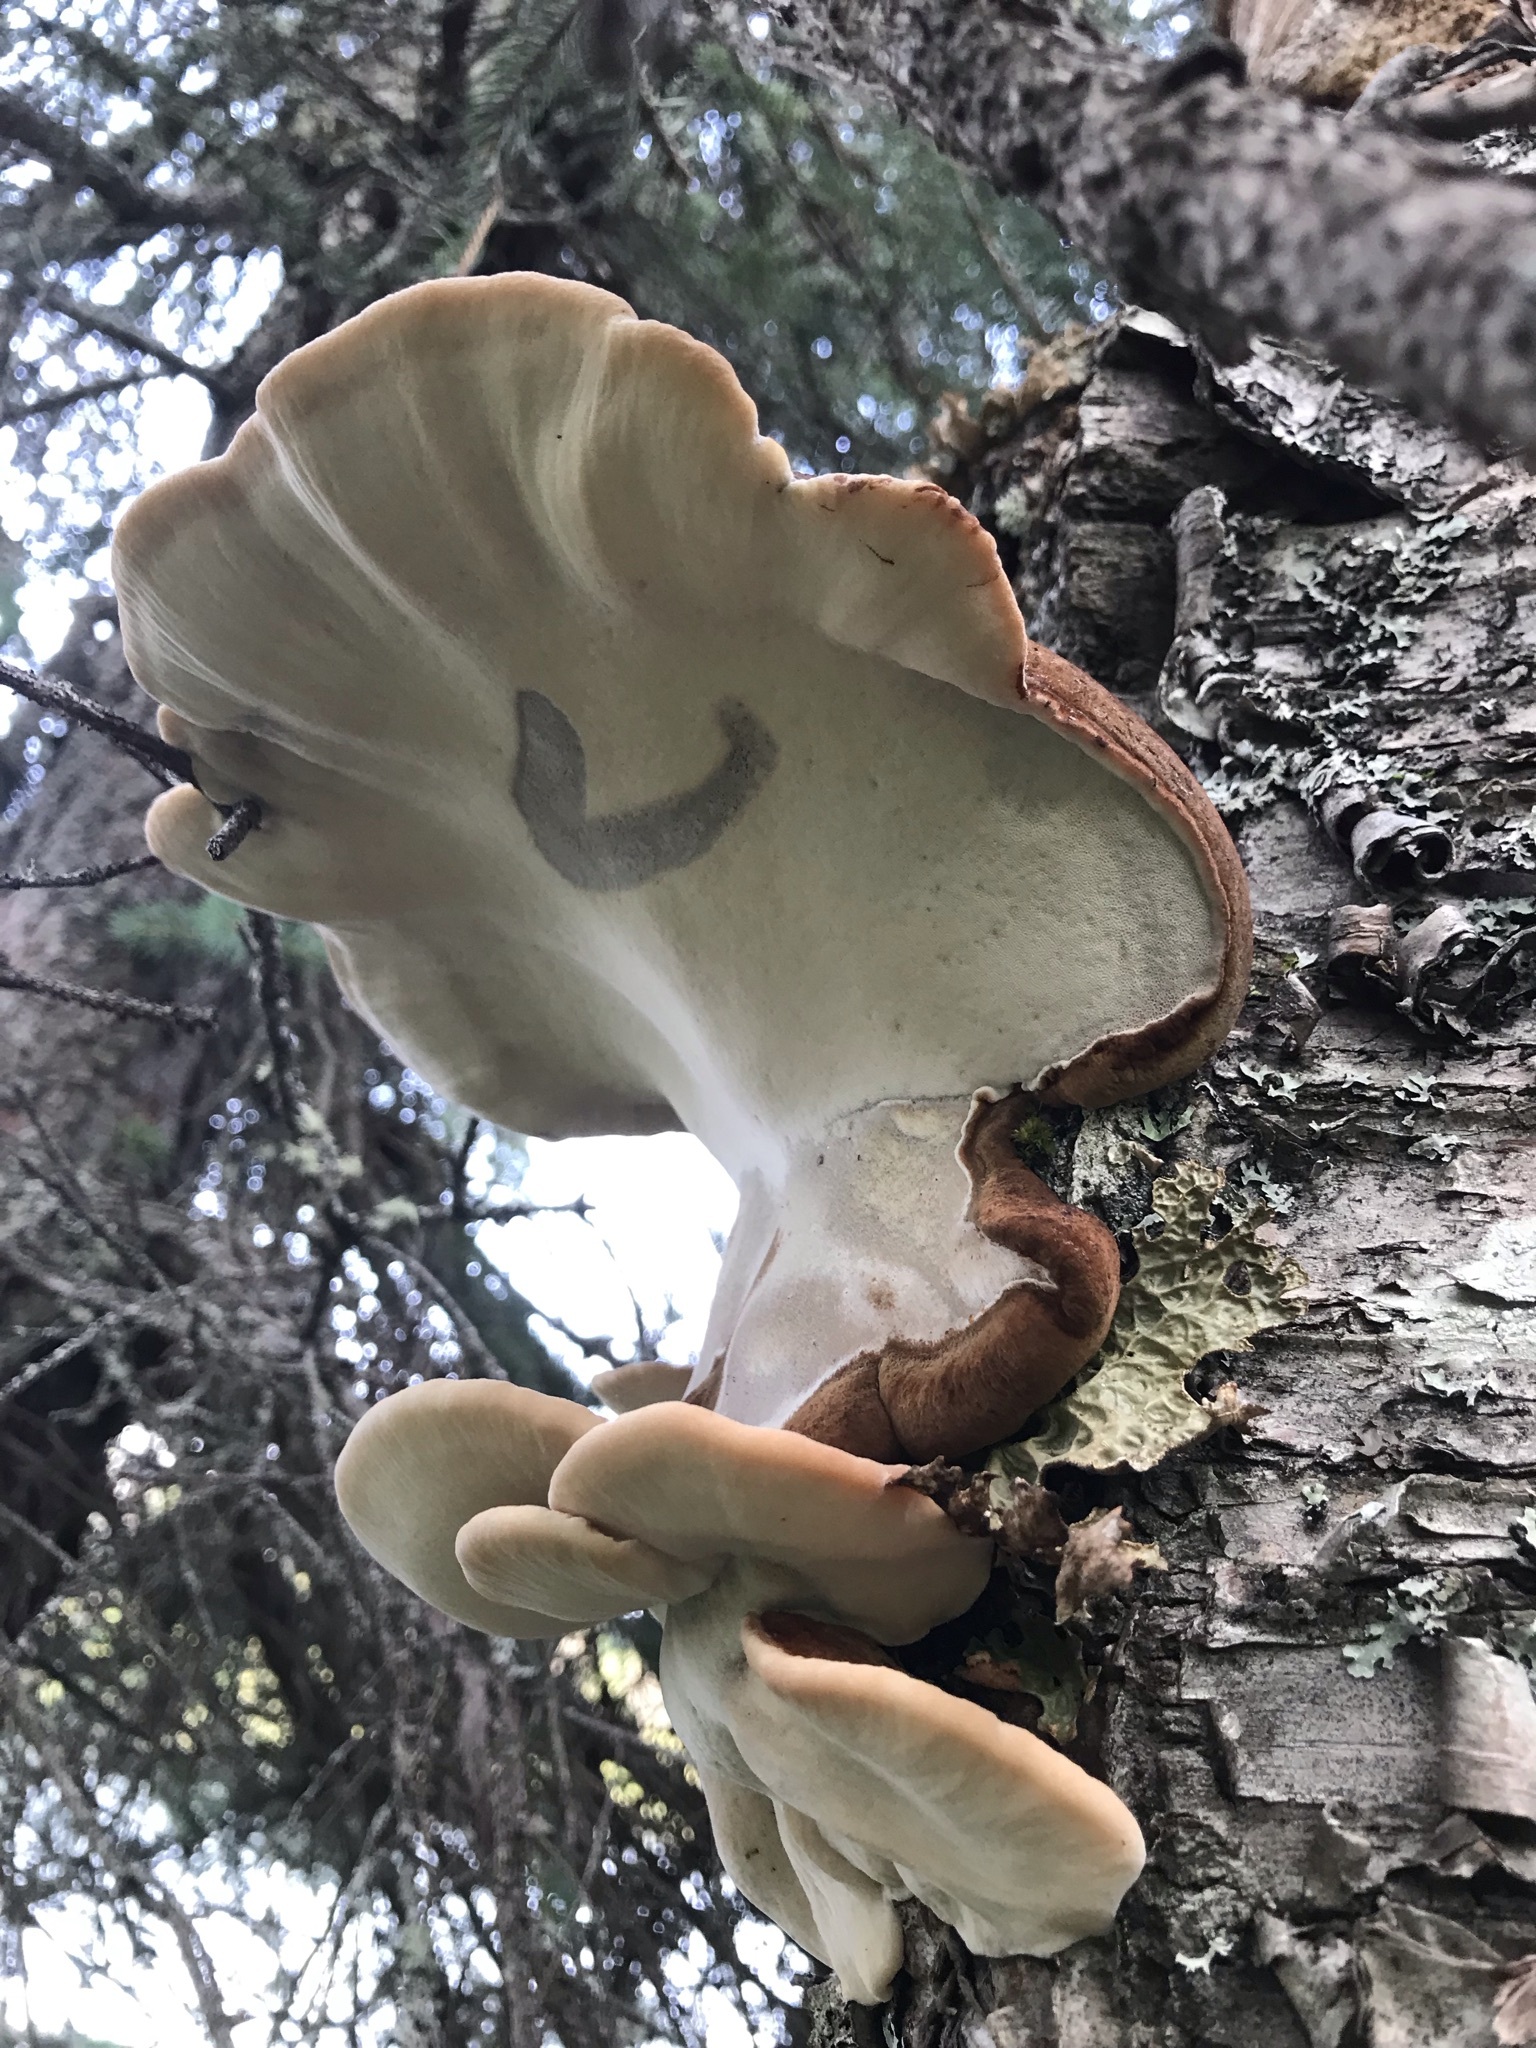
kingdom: Fungi
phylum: Basidiomycota
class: Agaricomycetes
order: Polyporales
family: Ischnodermataceae
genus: Ischnoderma
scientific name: Ischnoderma resinosum
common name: Resinous polypore
